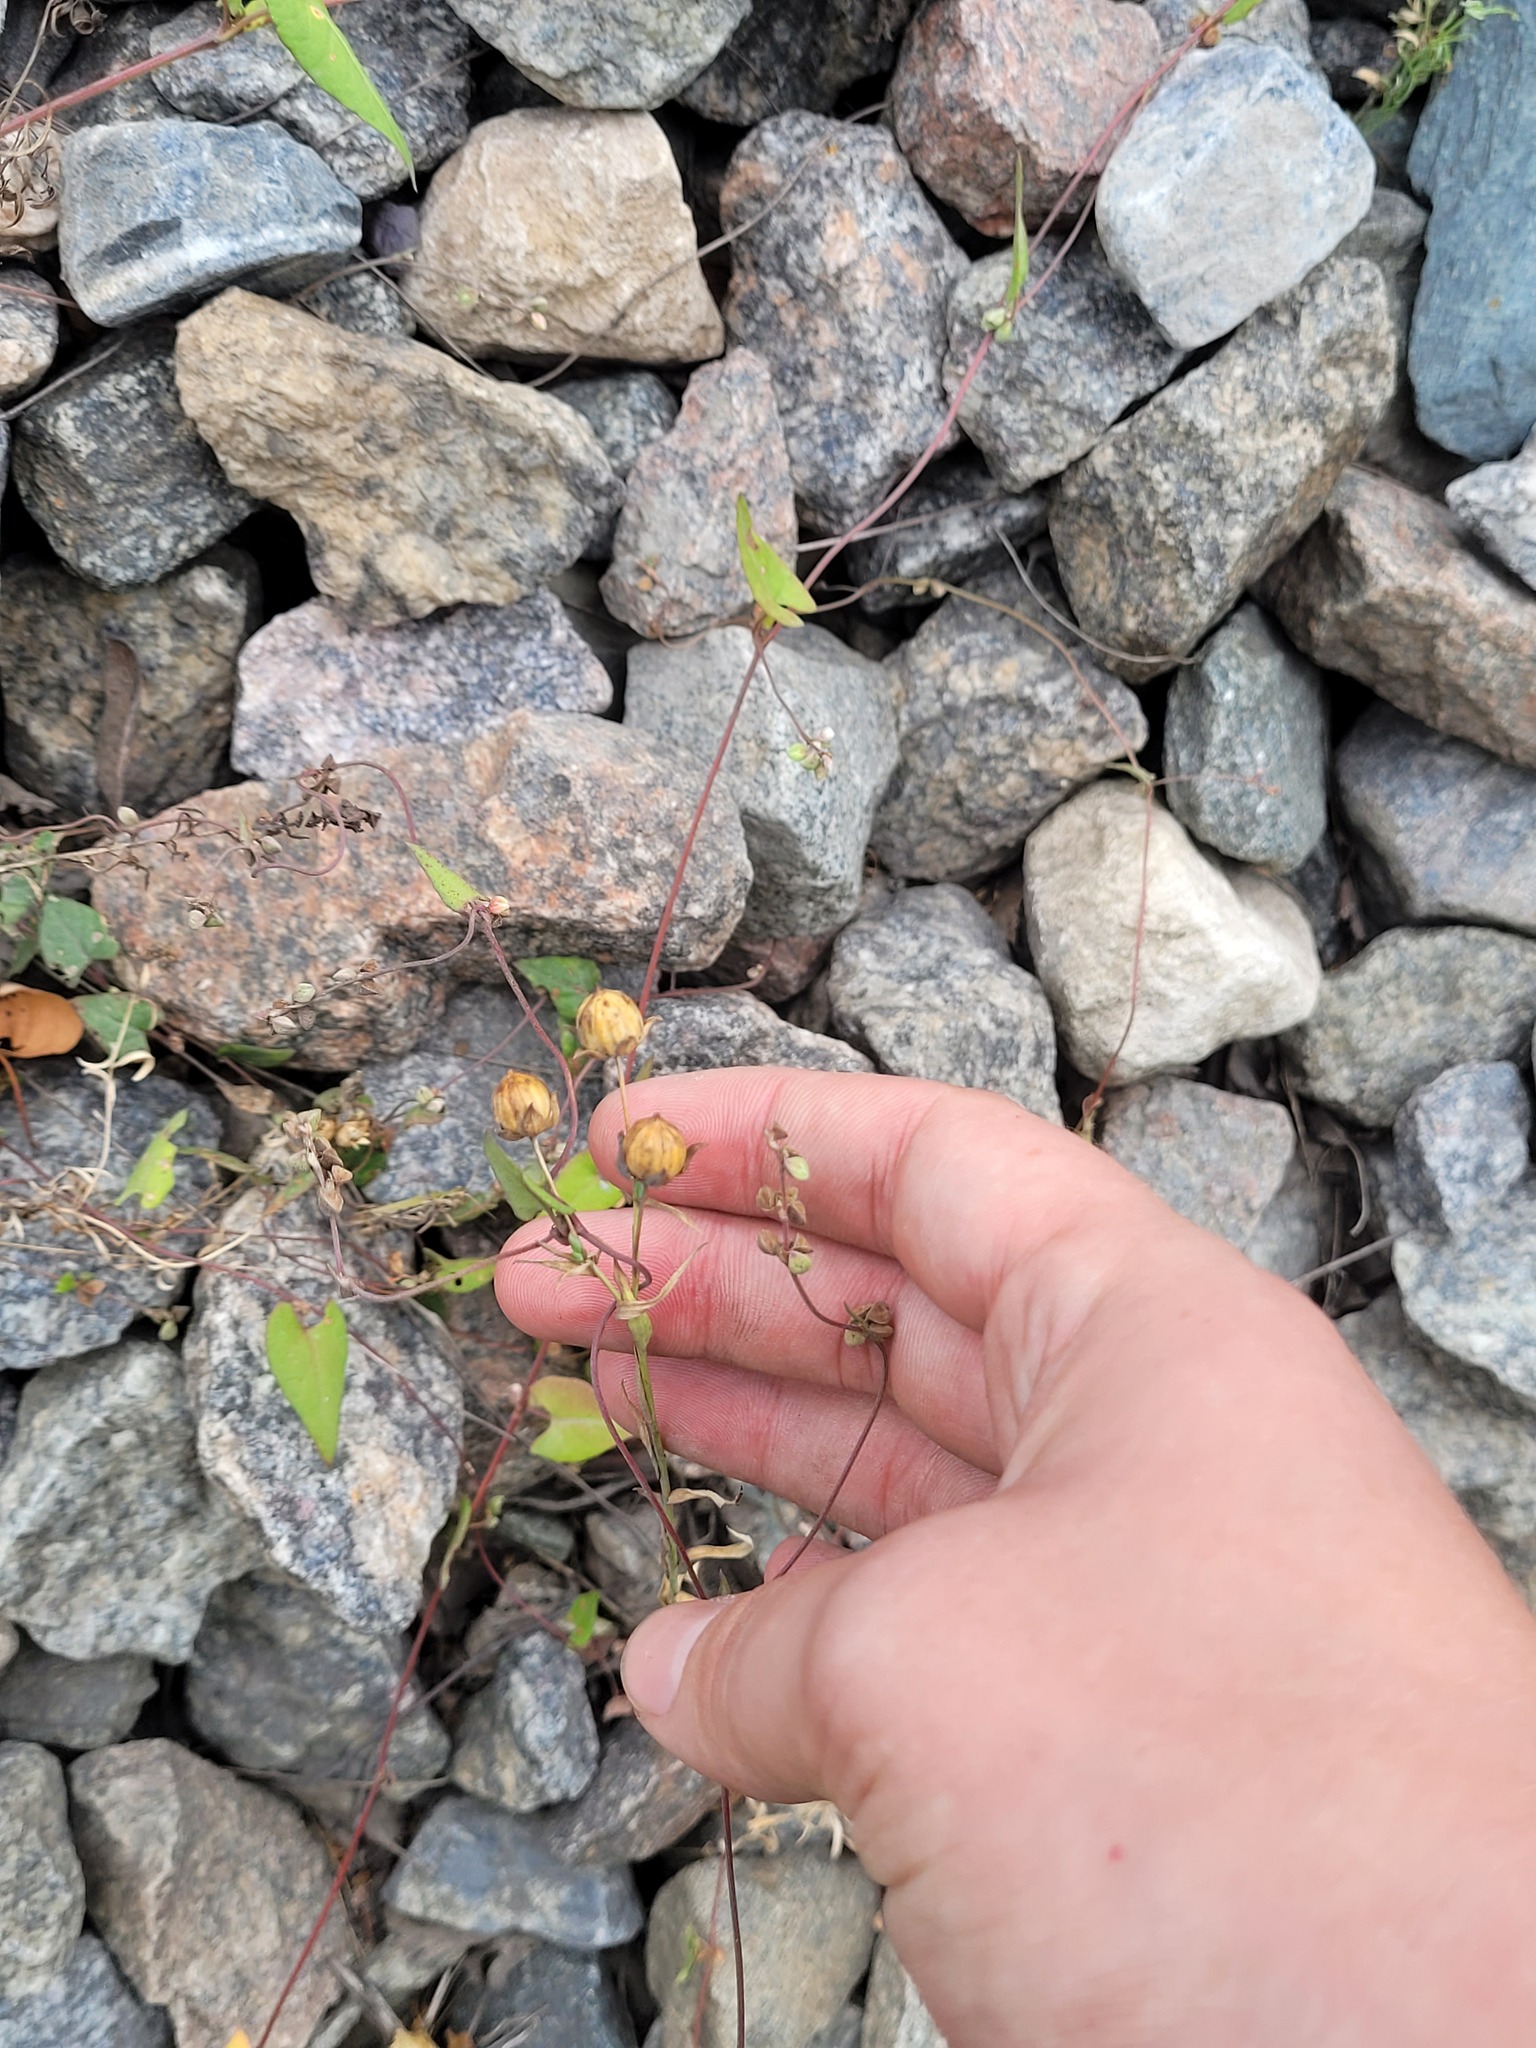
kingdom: Plantae
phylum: Tracheophyta
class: Magnoliopsida
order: Malpighiales
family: Linaceae
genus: Linum
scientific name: Linum usitatissimum
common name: Flax
